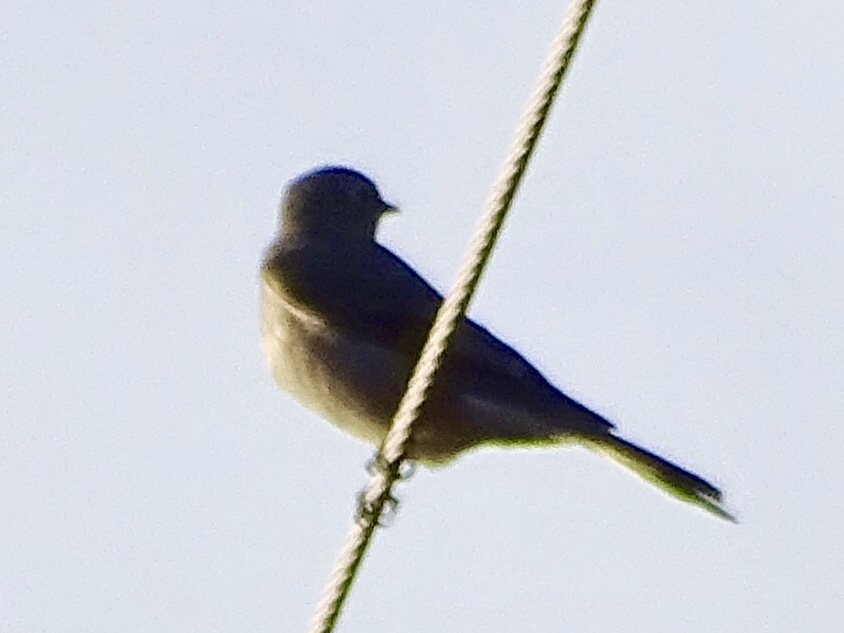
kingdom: Animalia
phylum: Chordata
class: Aves
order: Passeriformes
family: Turdidae
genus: Sialia
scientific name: Sialia mexicana
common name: Western bluebird
